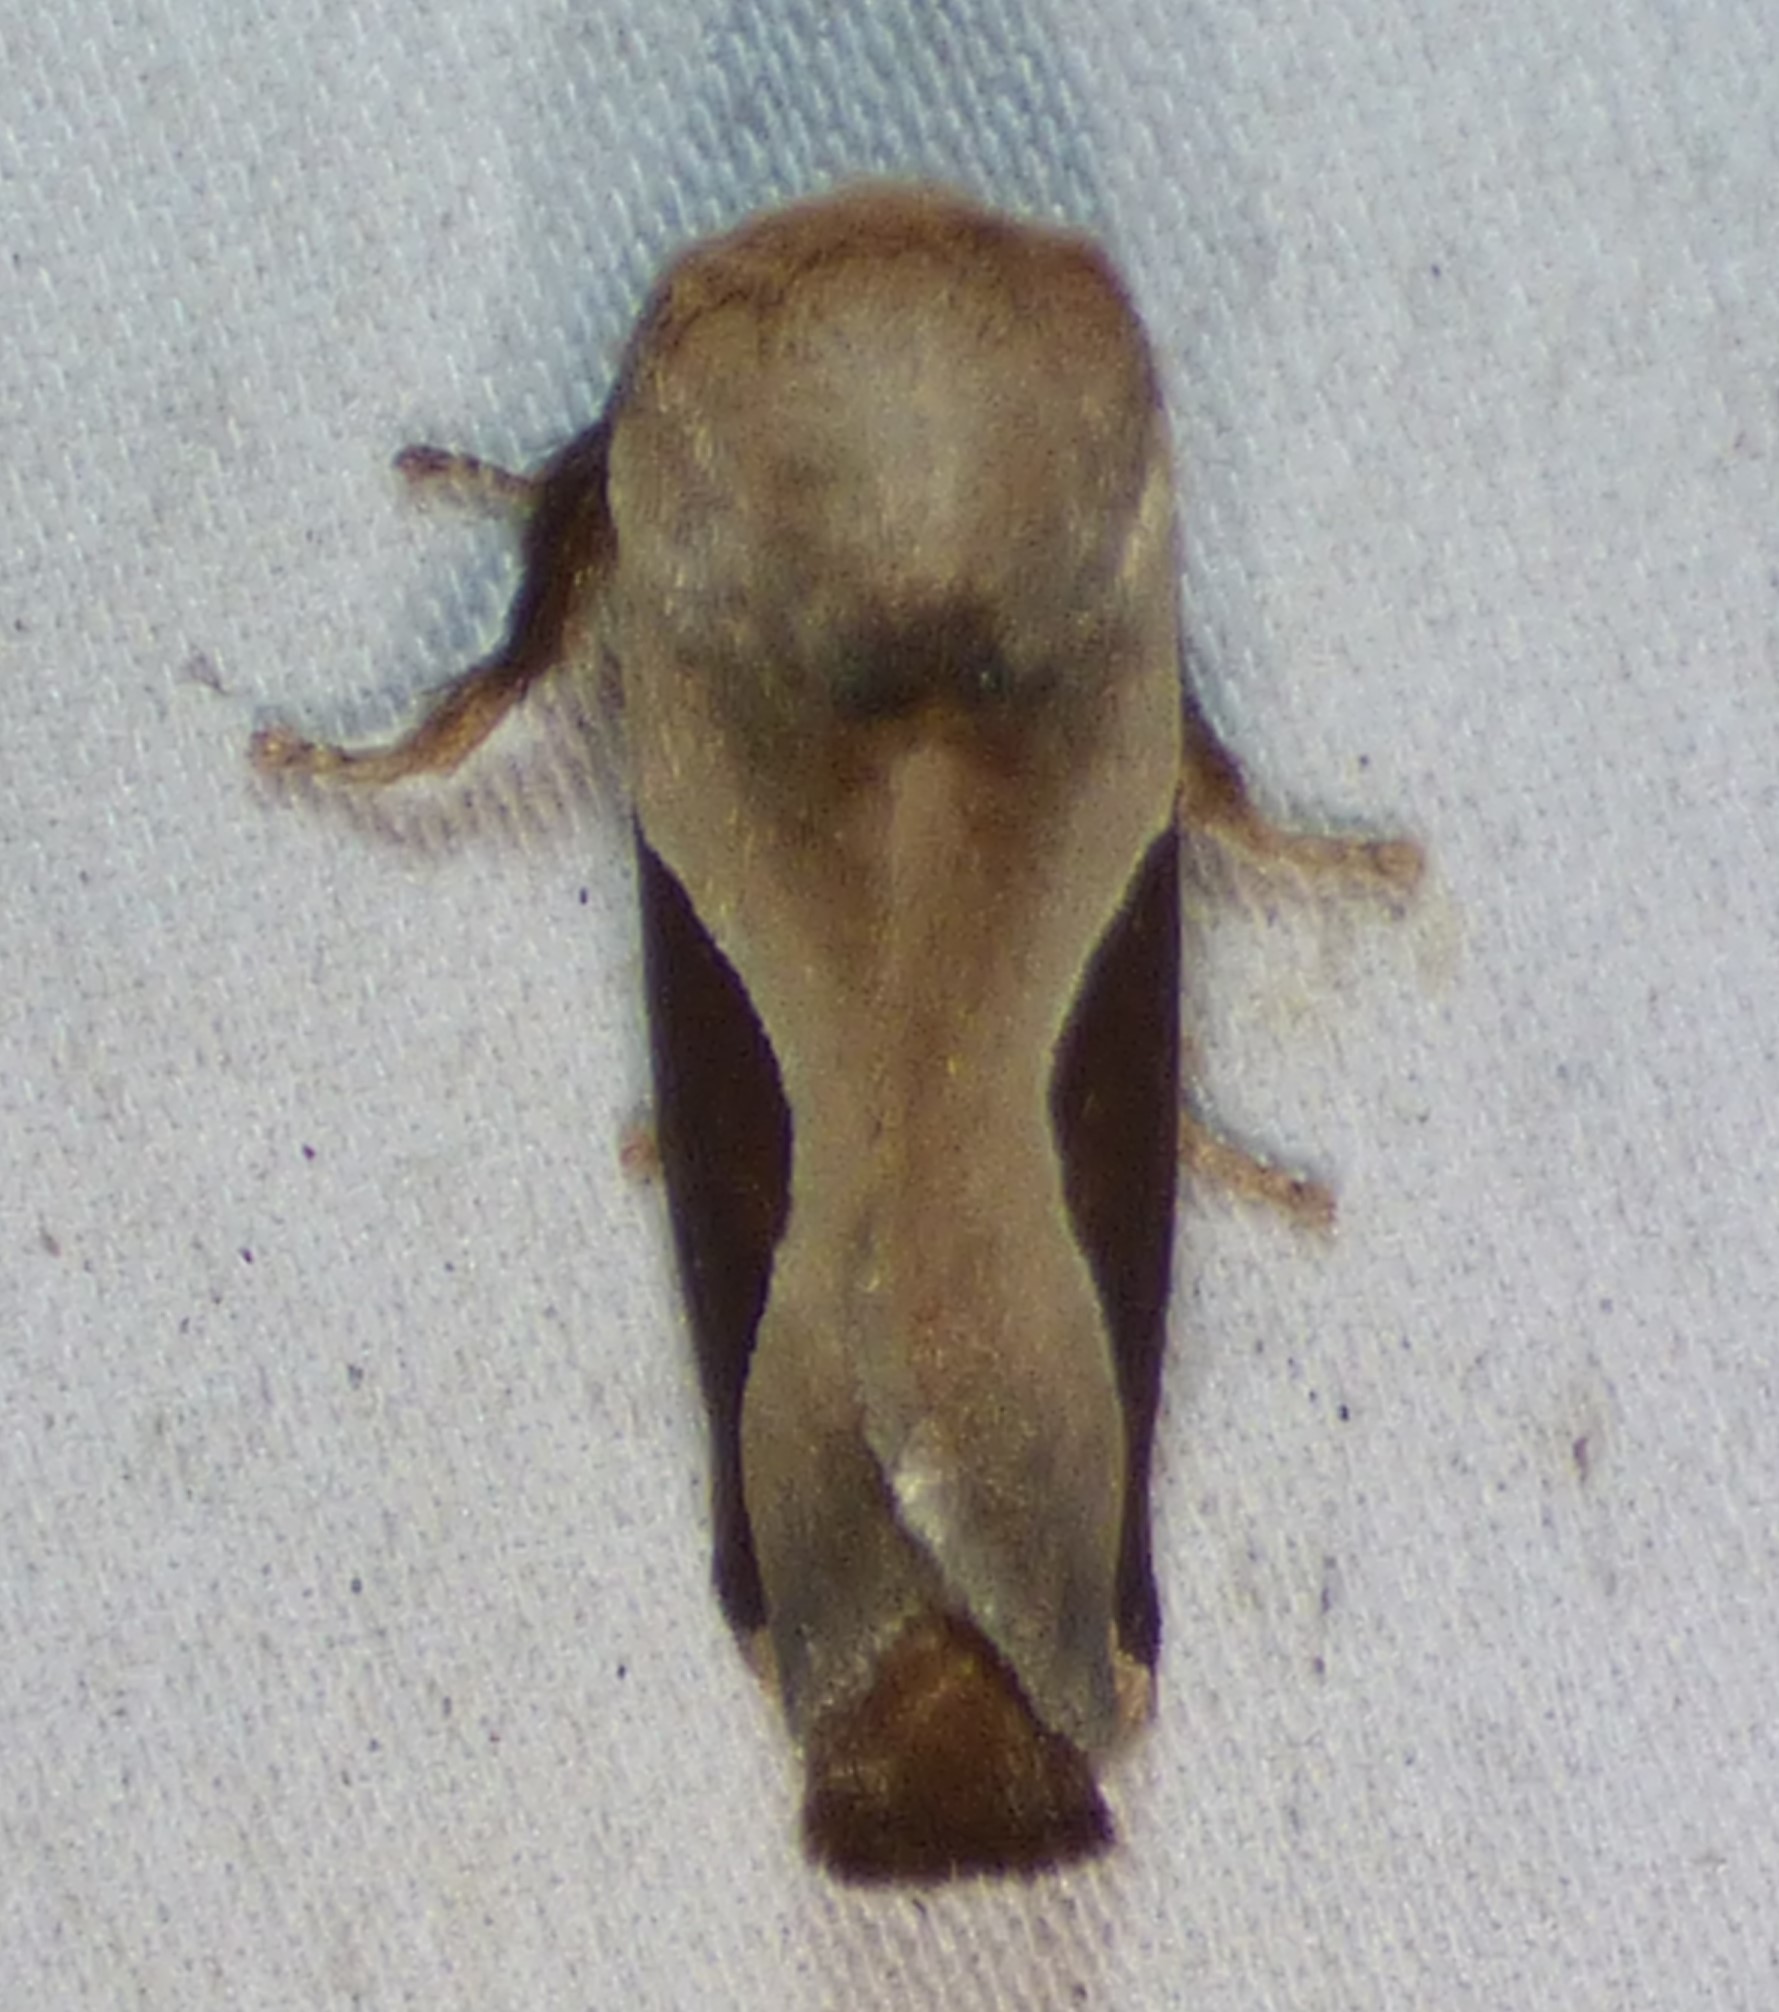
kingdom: Animalia
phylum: Arthropoda
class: Insecta
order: Lepidoptera
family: Limacodidae
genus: Prolimacodes
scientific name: Prolimacodes badia
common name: Skiff moth
